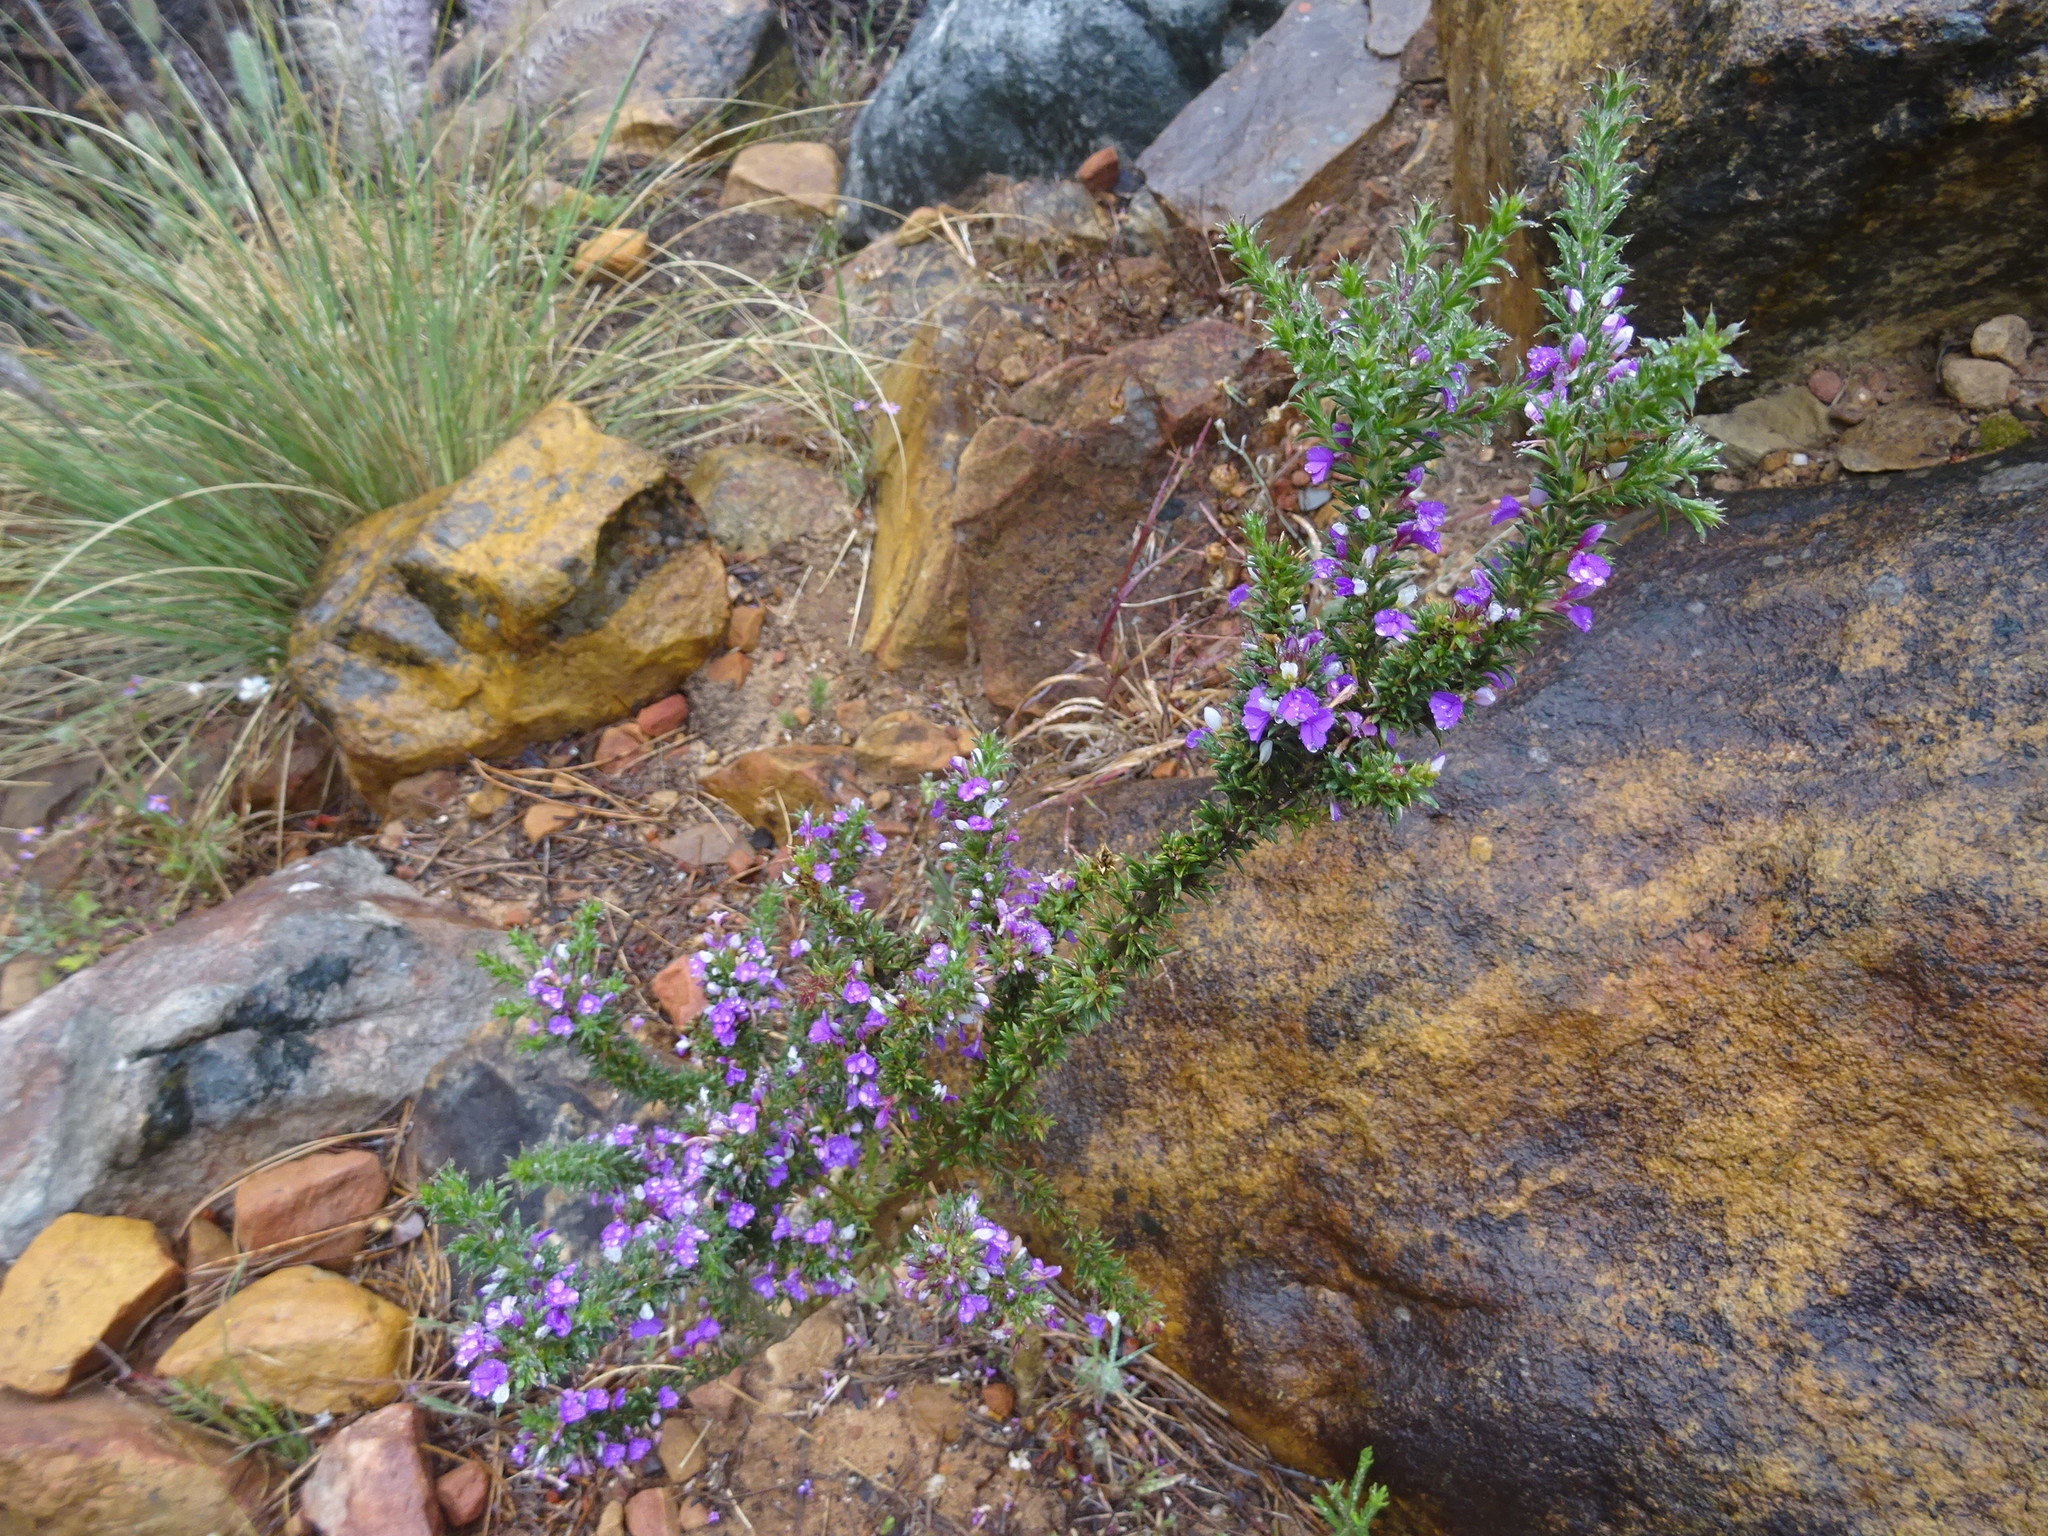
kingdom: Plantae
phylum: Tracheophyta
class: Magnoliopsida
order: Fabales
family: Polygalaceae
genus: Muraltia
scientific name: Muraltia heisteria
